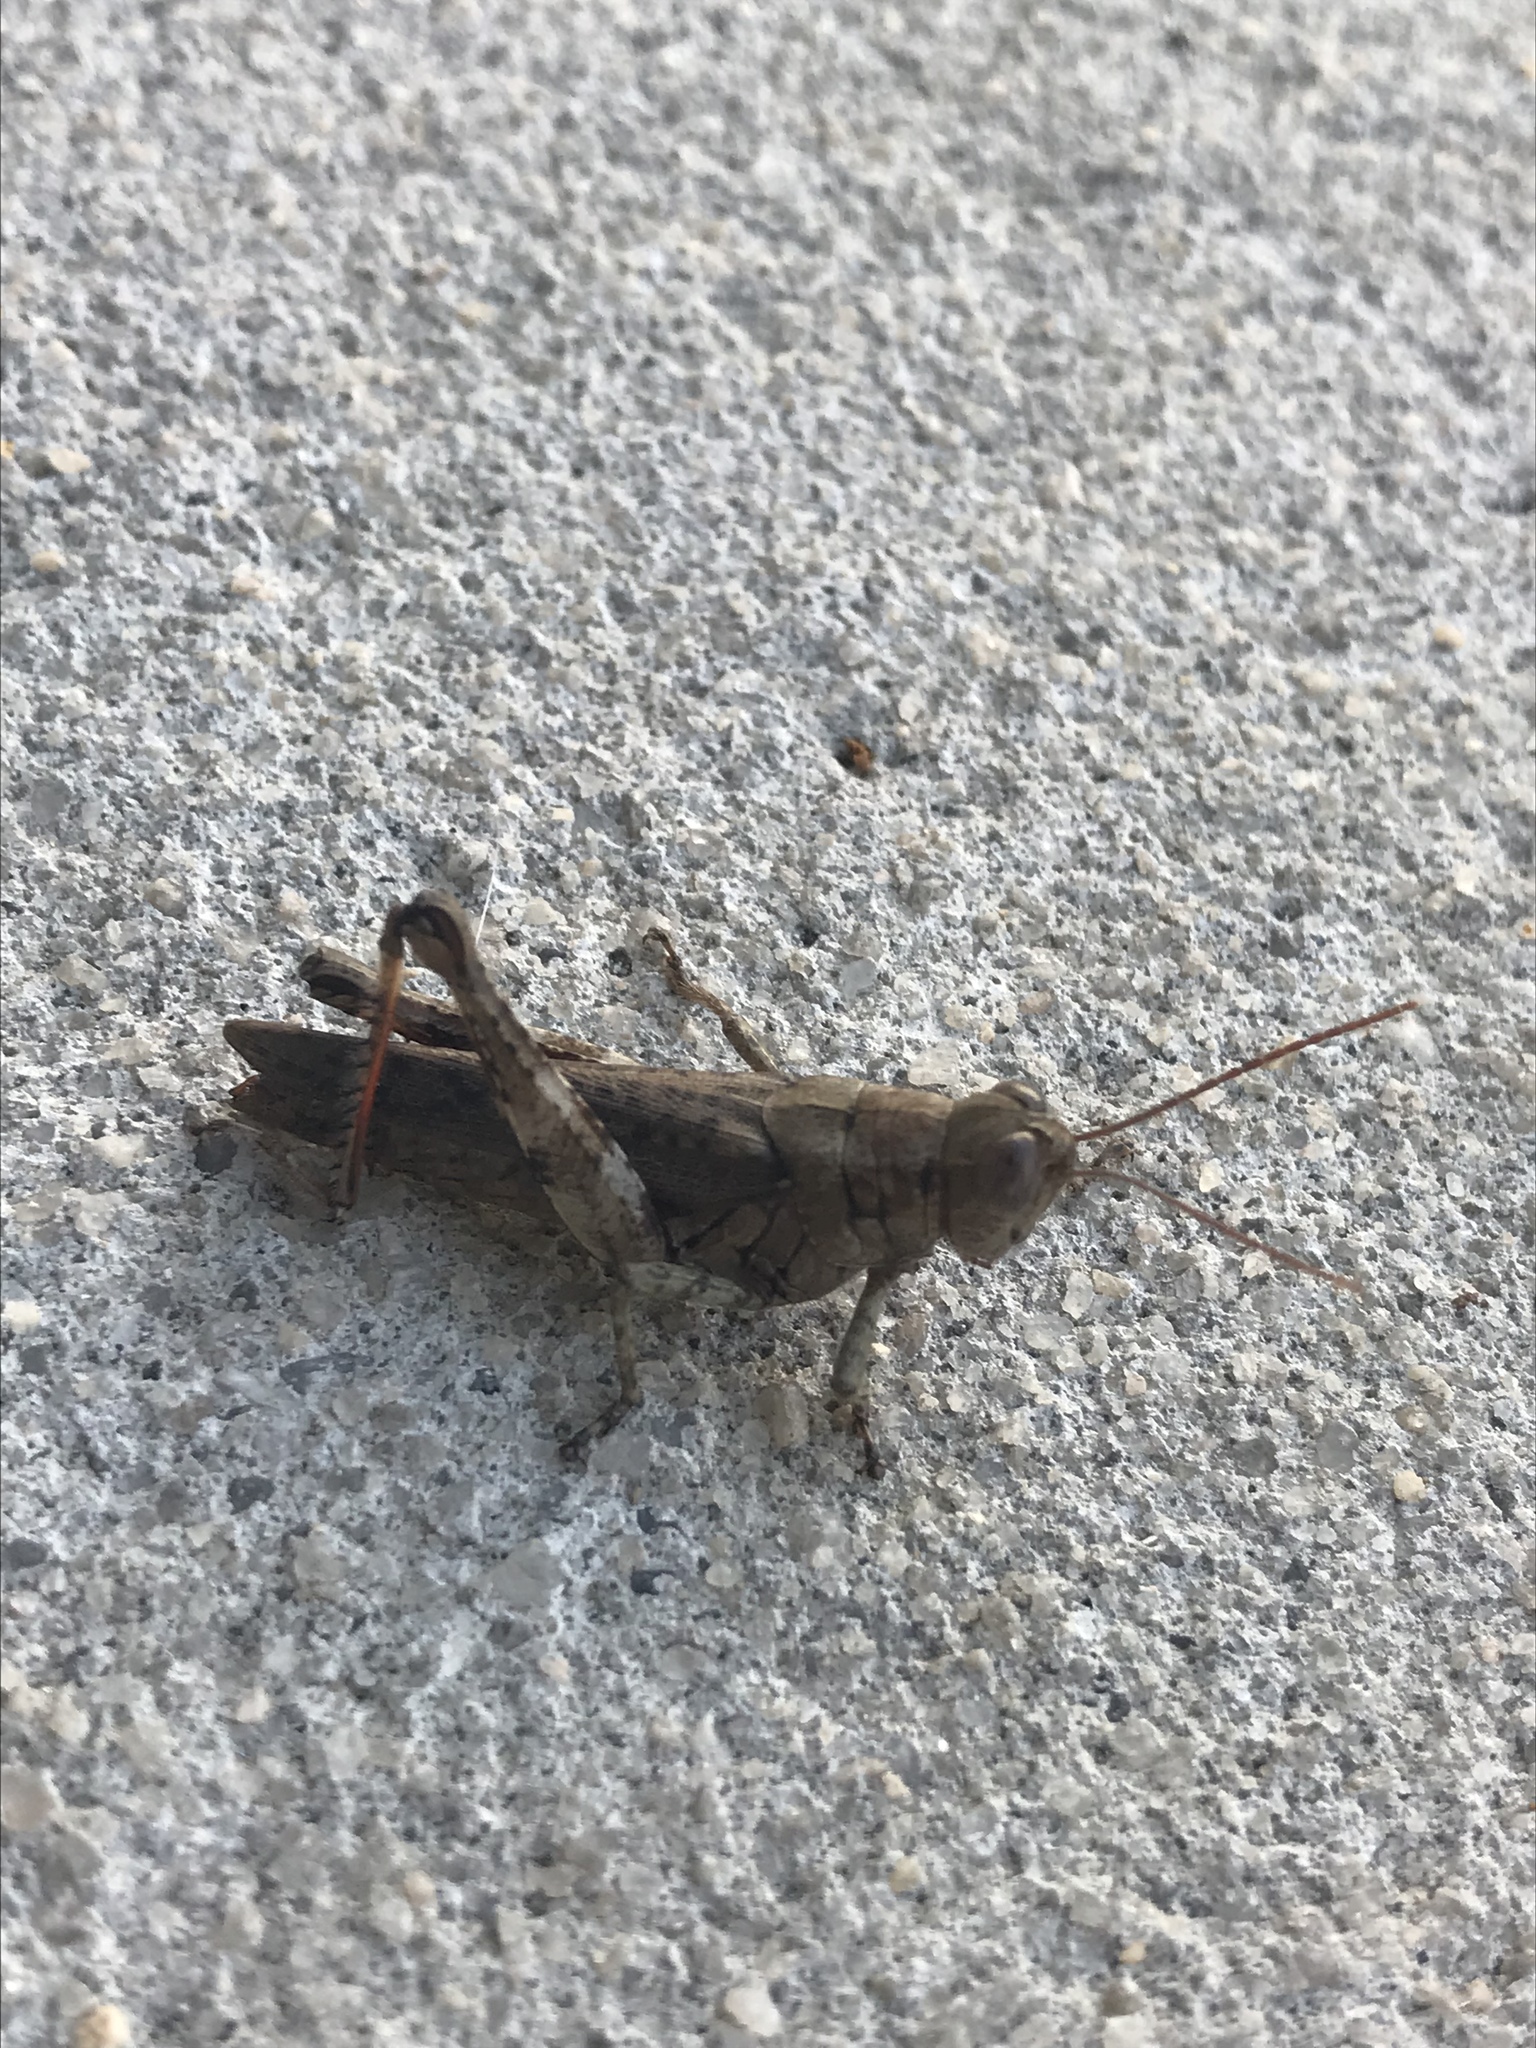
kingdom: Animalia
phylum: Arthropoda
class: Insecta
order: Orthoptera
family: Acrididae
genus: Melanoplus
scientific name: Melanoplus punctulatus
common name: Pine-tree spur-throat grasshopper
